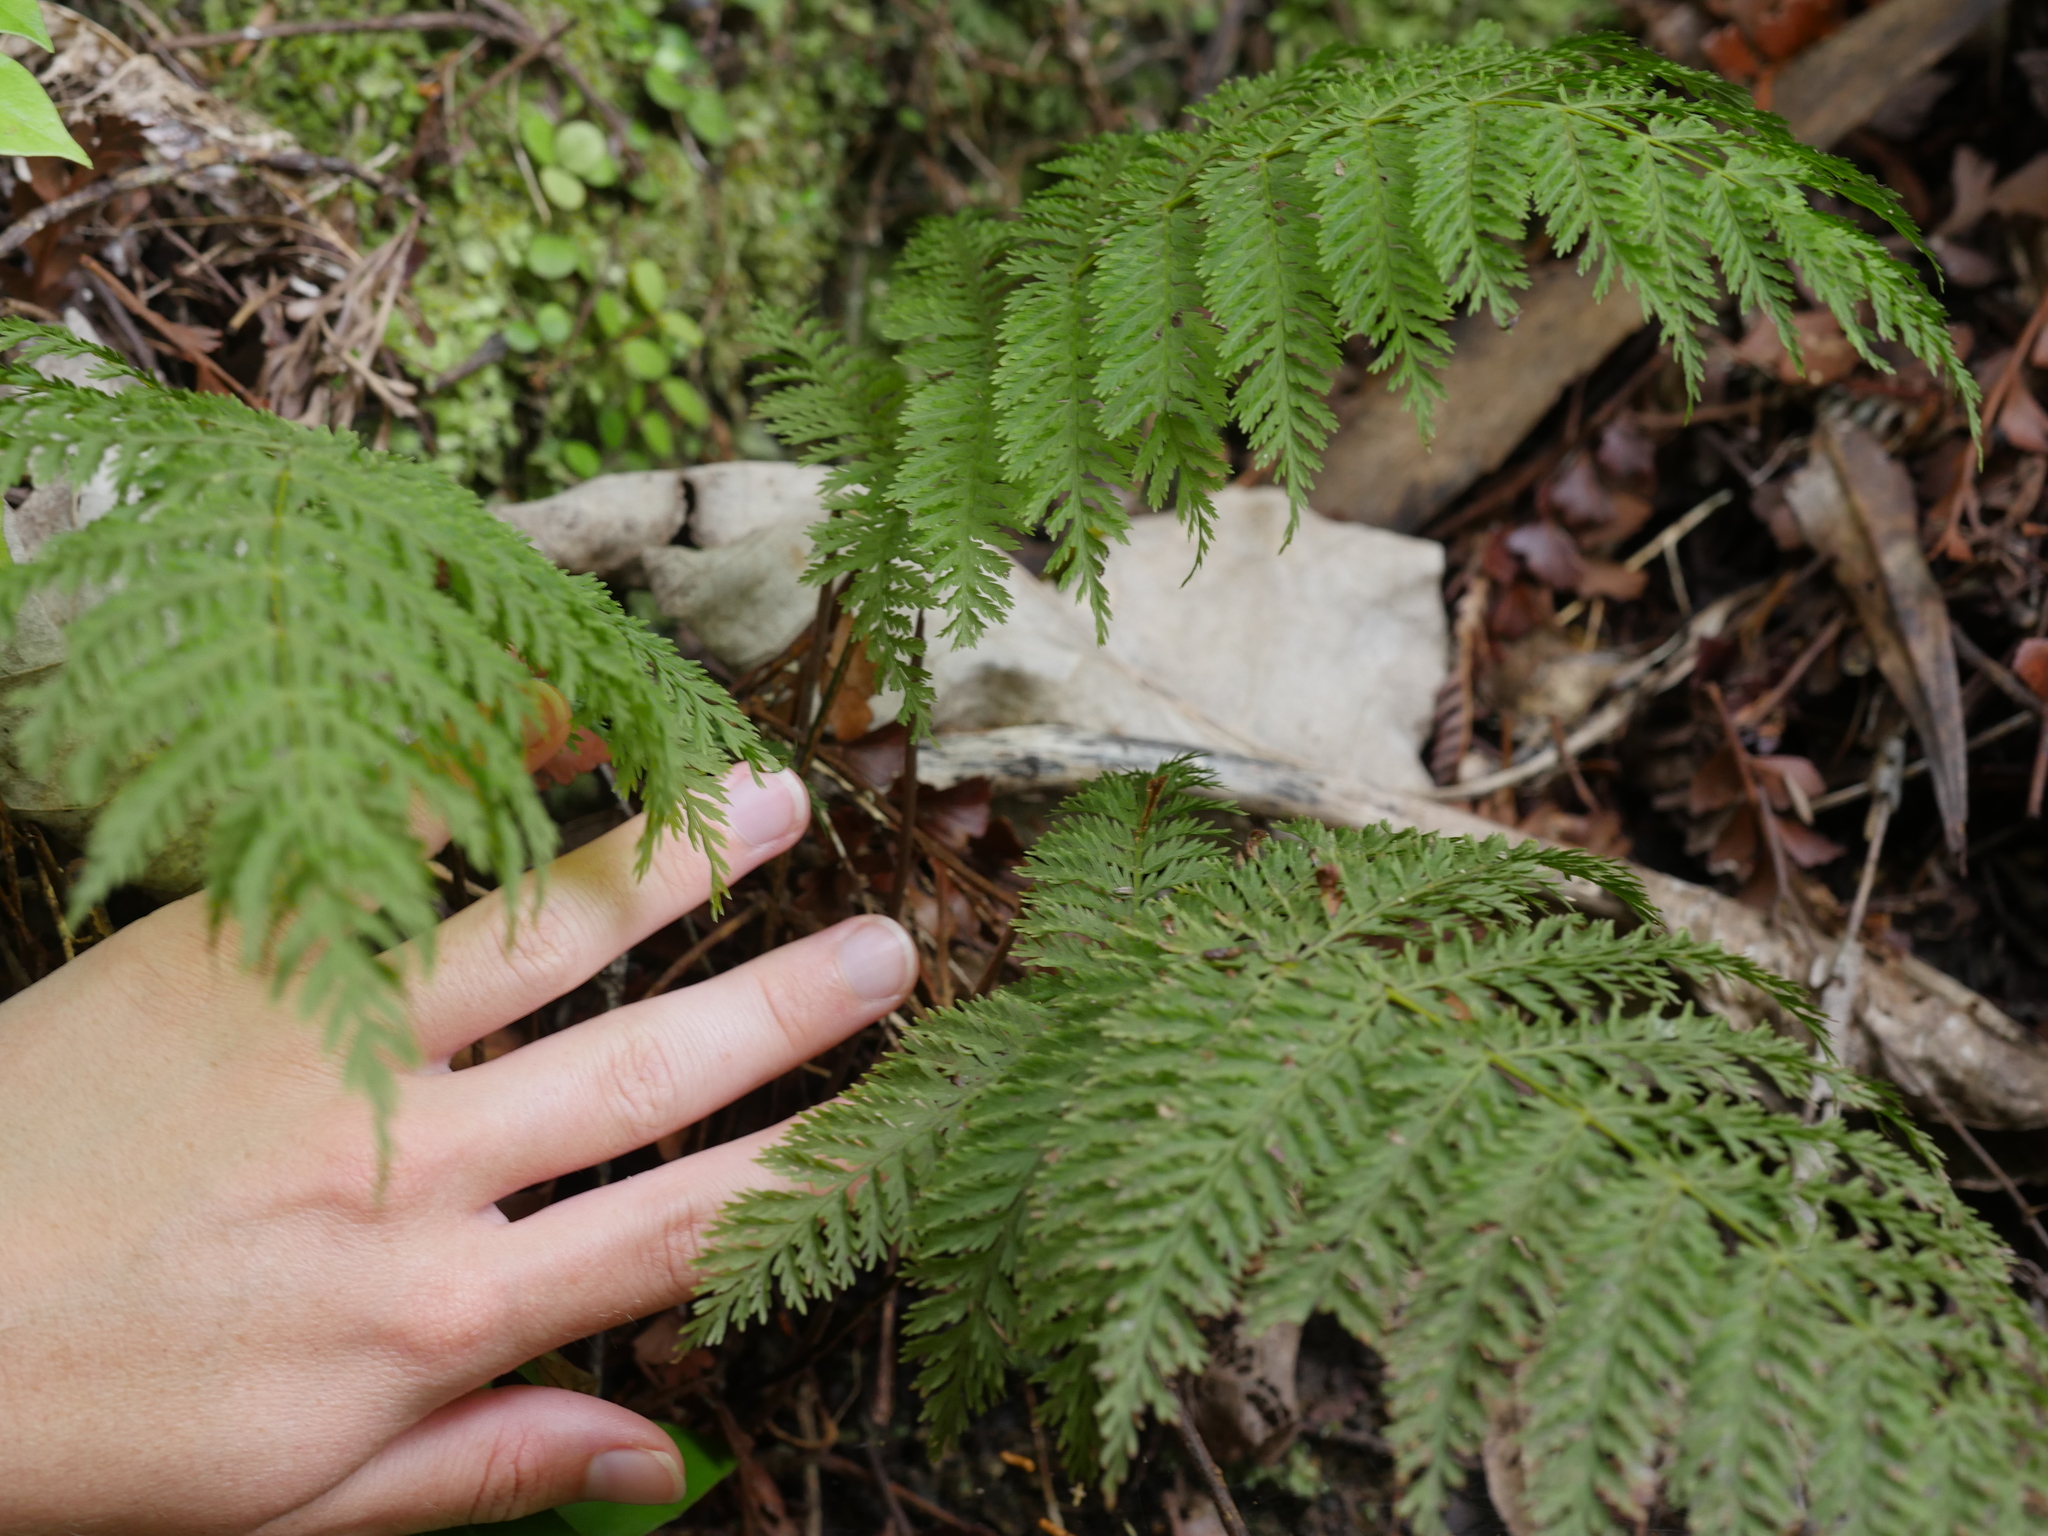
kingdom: Plantae
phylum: Tracheophyta
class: Polypodiopsida
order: Osmundales
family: Osmundaceae
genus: Leptopteris
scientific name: Leptopteris hymenophylloides
